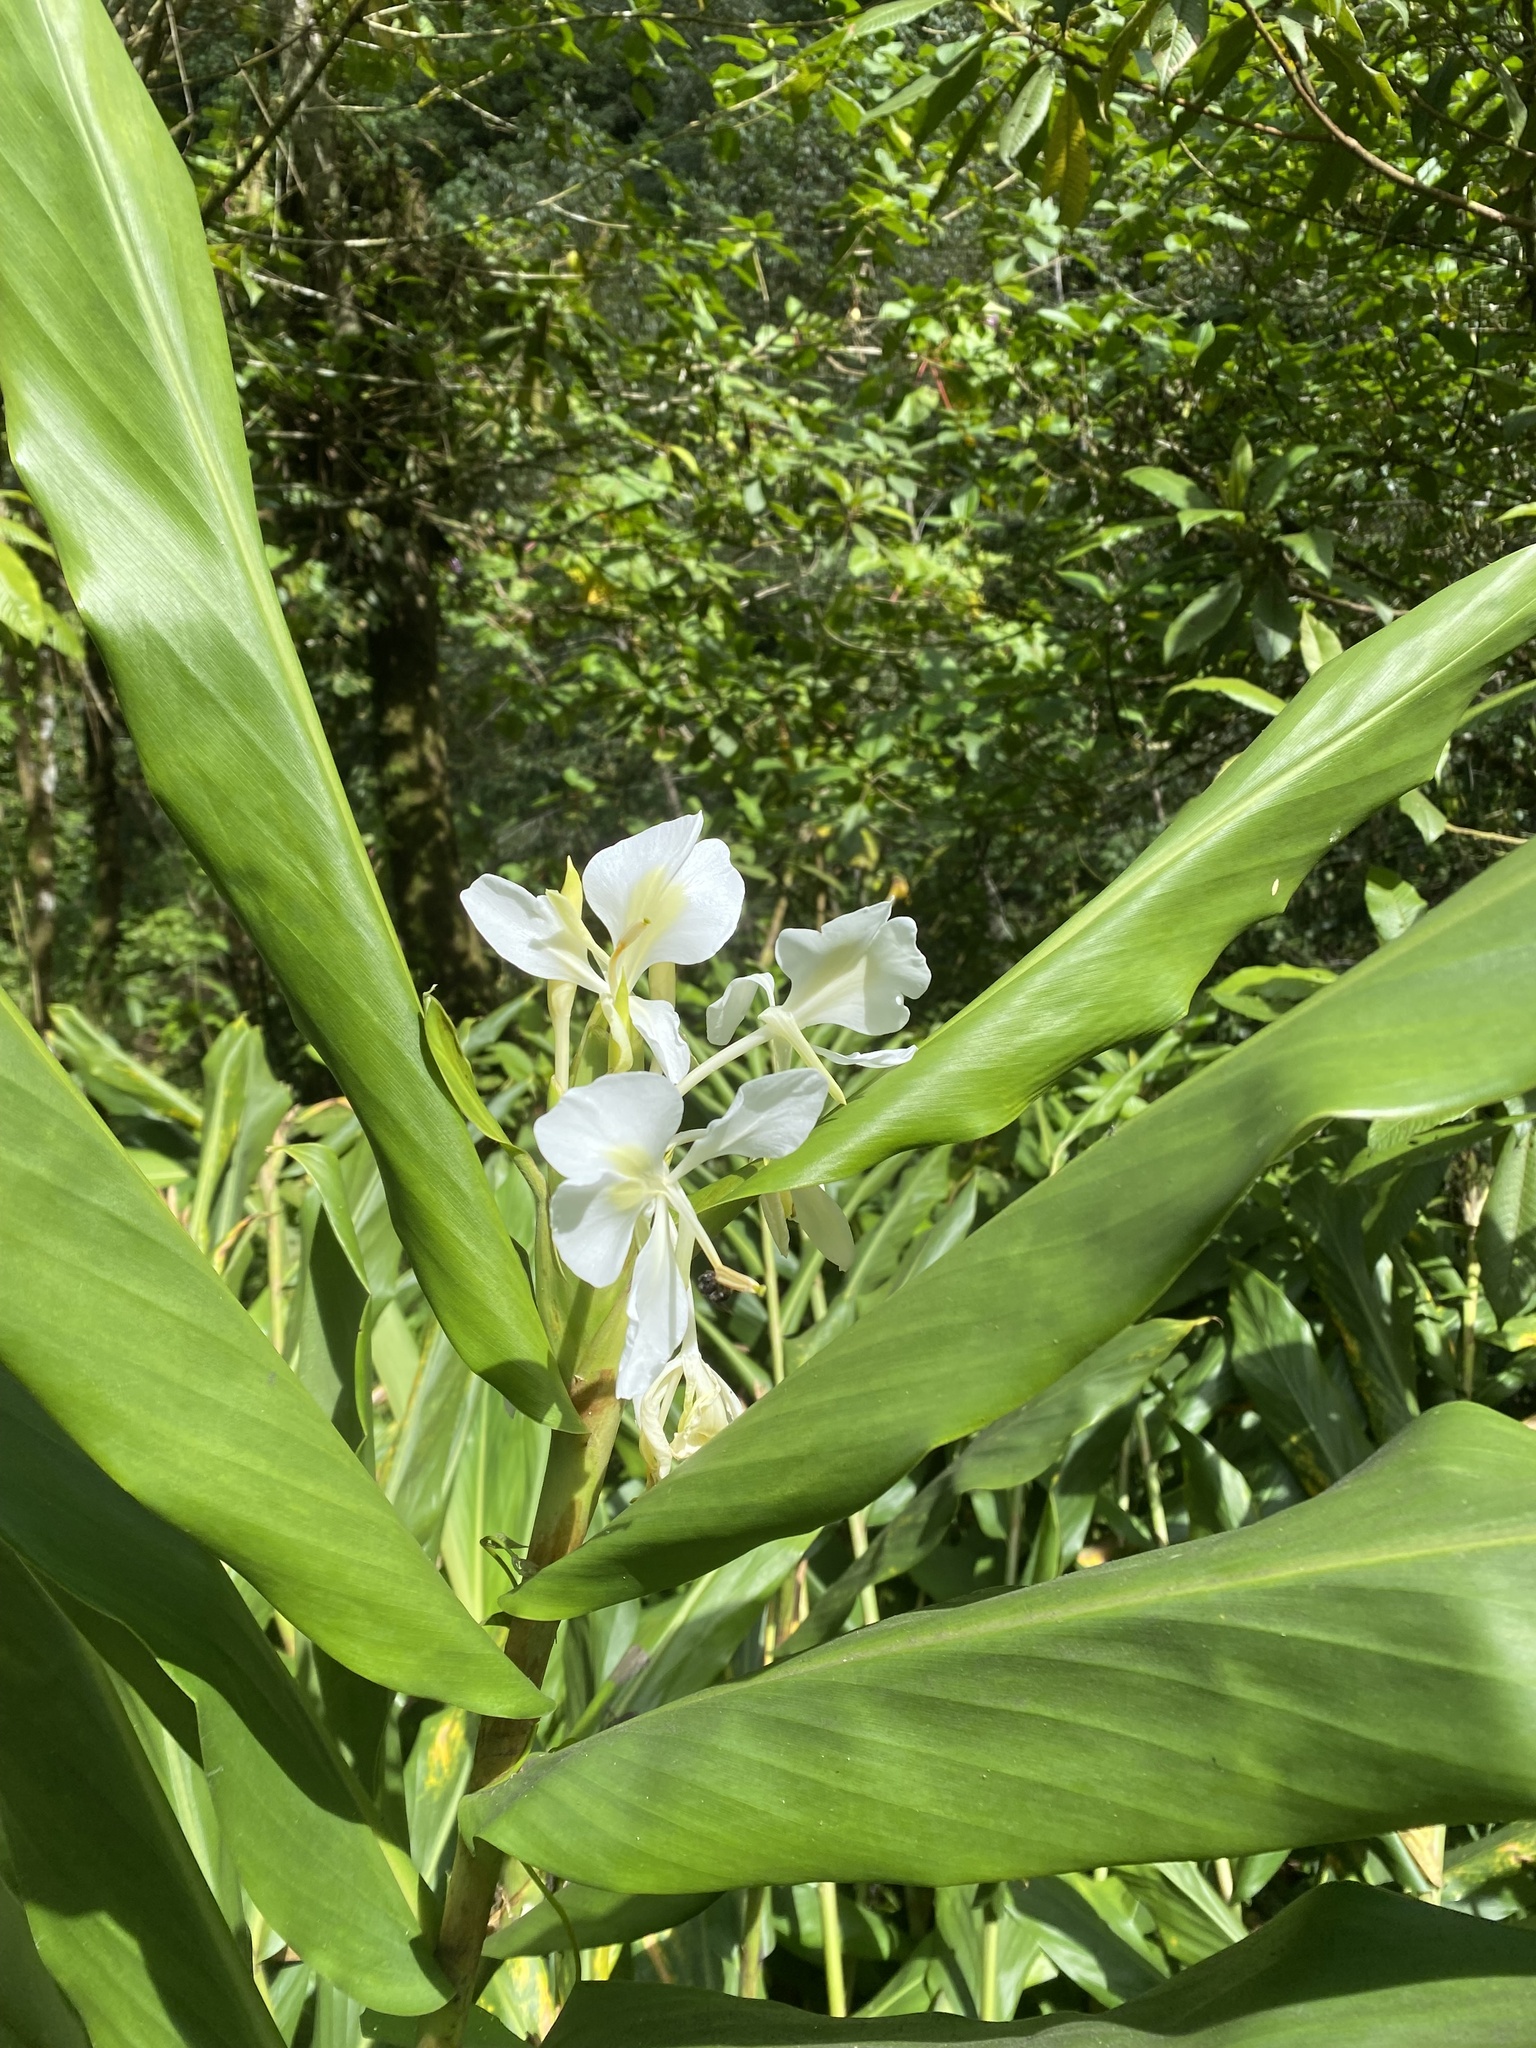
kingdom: Plantae
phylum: Tracheophyta
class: Liliopsida
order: Zingiberales
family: Zingiberaceae
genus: Hedychium
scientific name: Hedychium coronarium
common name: White garland-lily
